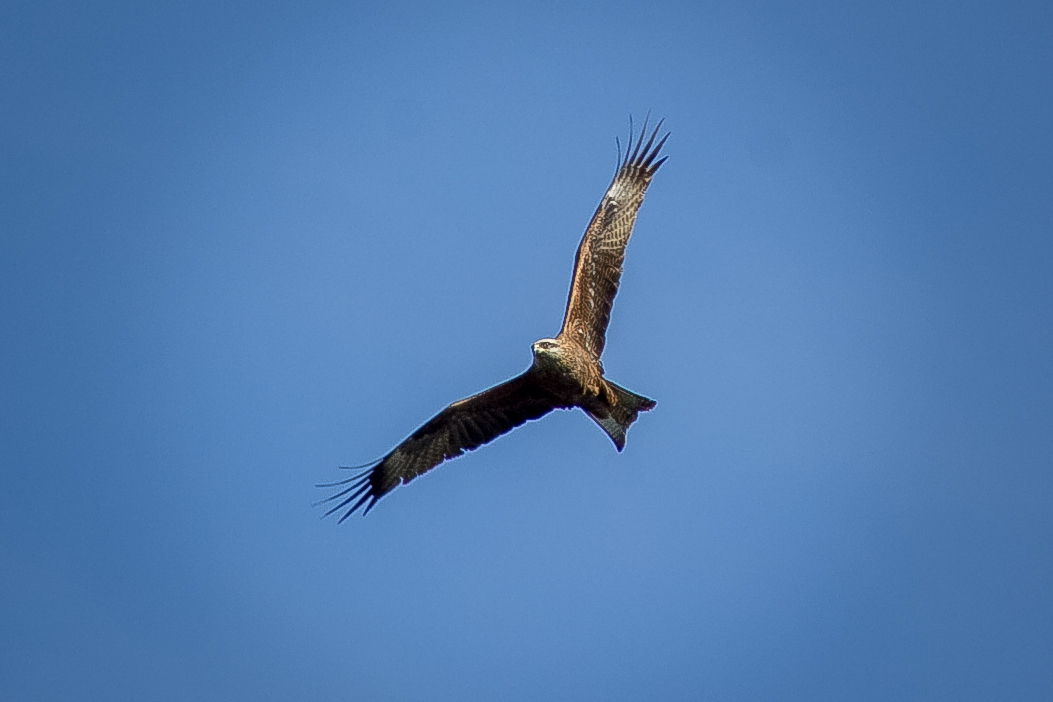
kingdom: Animalia
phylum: Chordata
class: Aves
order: Accipitriformes
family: Accipitridae
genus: Milvus
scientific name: Milvus migrans
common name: Black kite
